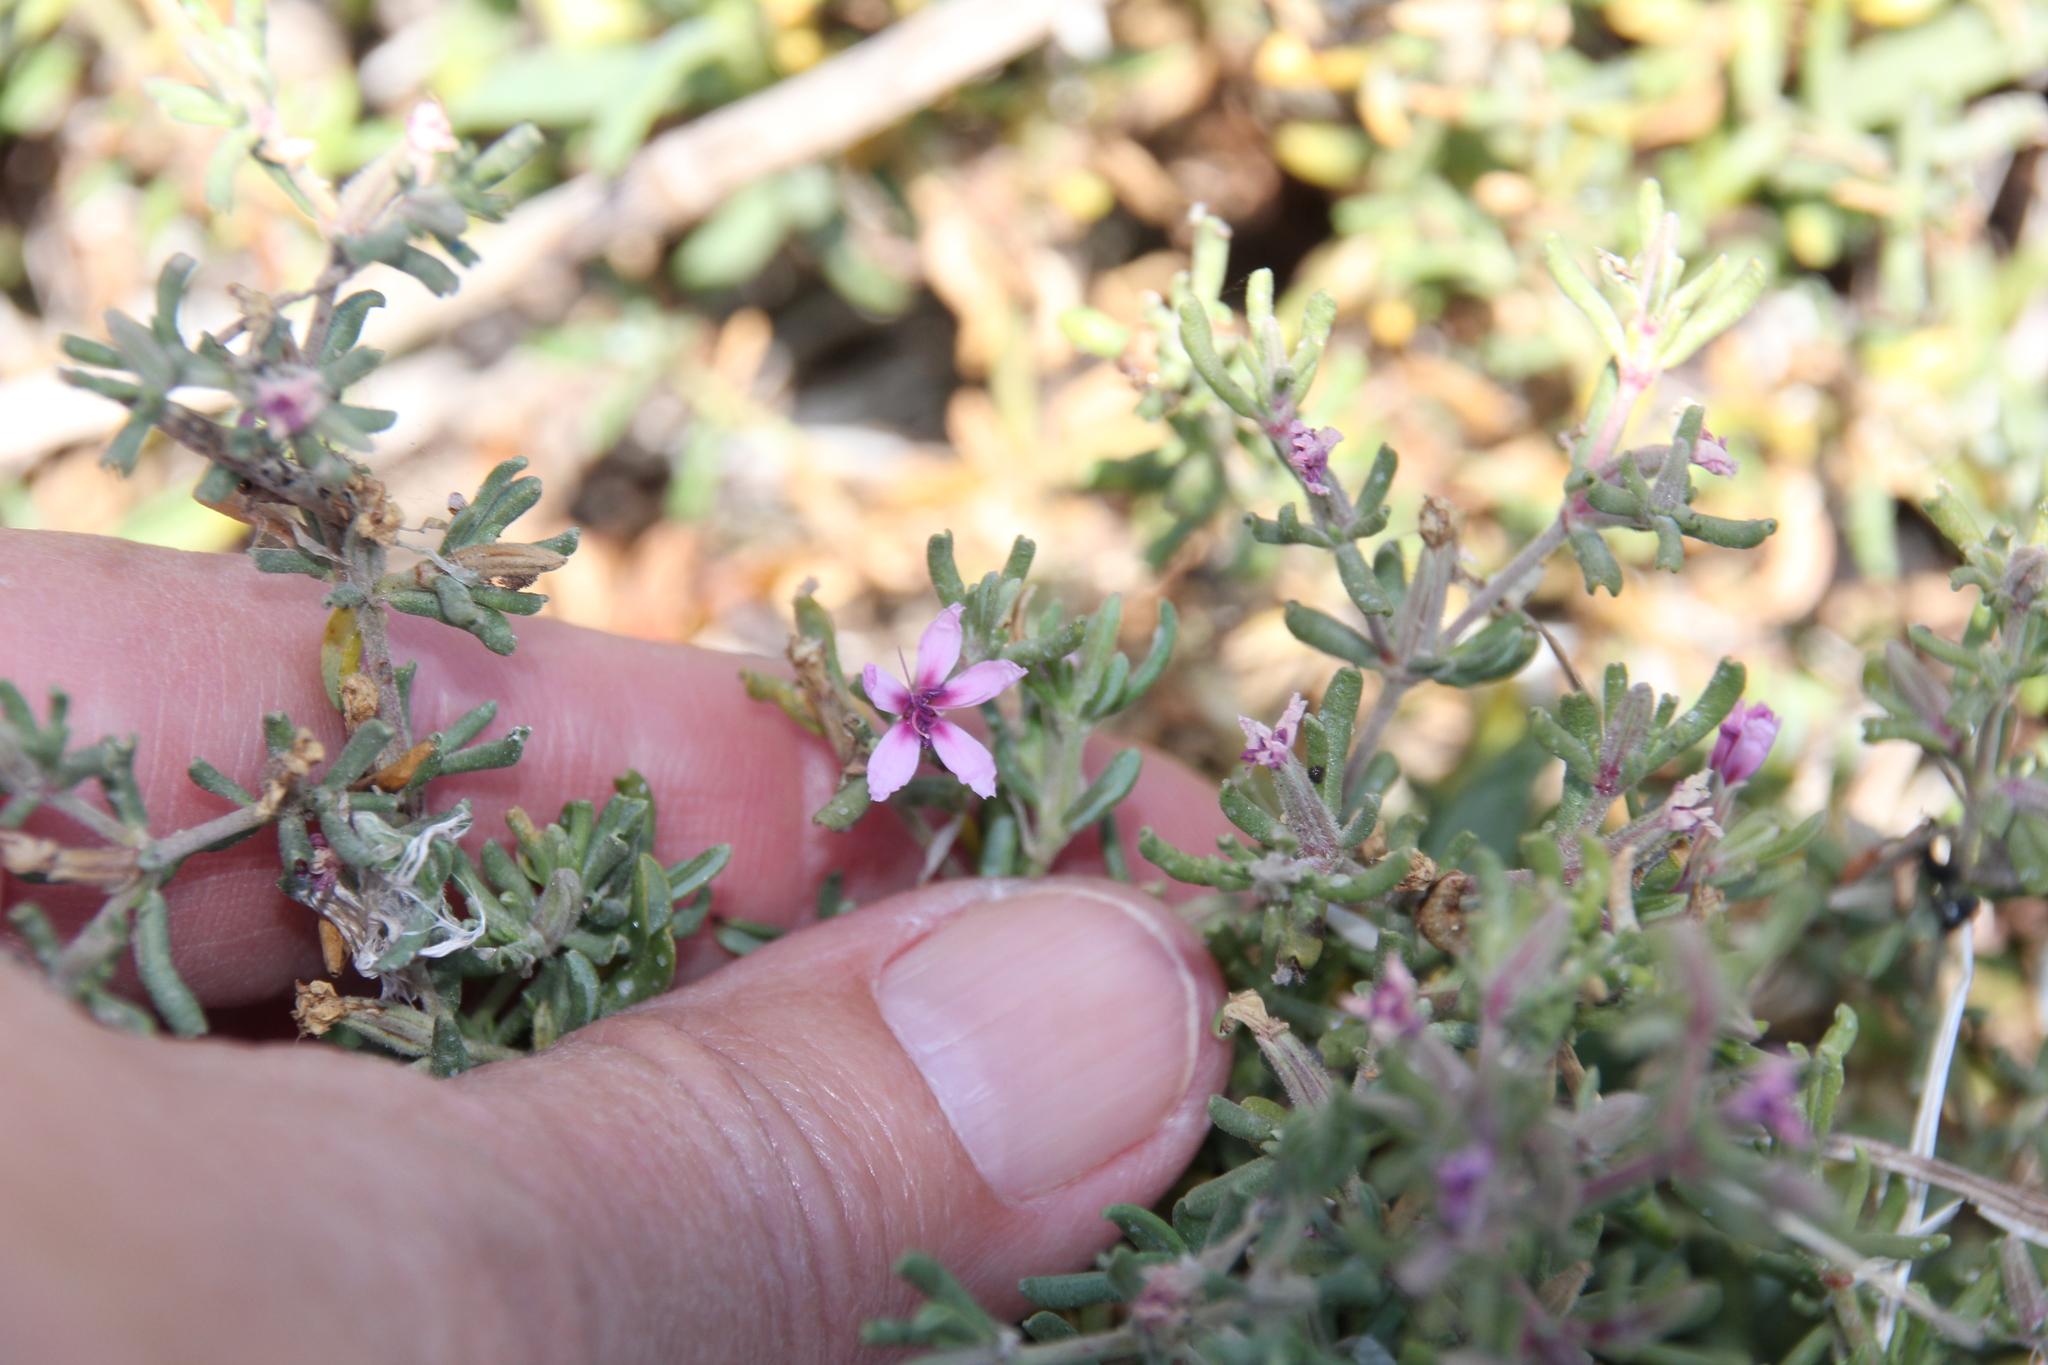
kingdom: Plantae
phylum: Tracheophyta
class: Magnoliopsida
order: Caryophyllales
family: Frankeniaceae
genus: Frankenia
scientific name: Frankenia salina
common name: Alkali seaheath
